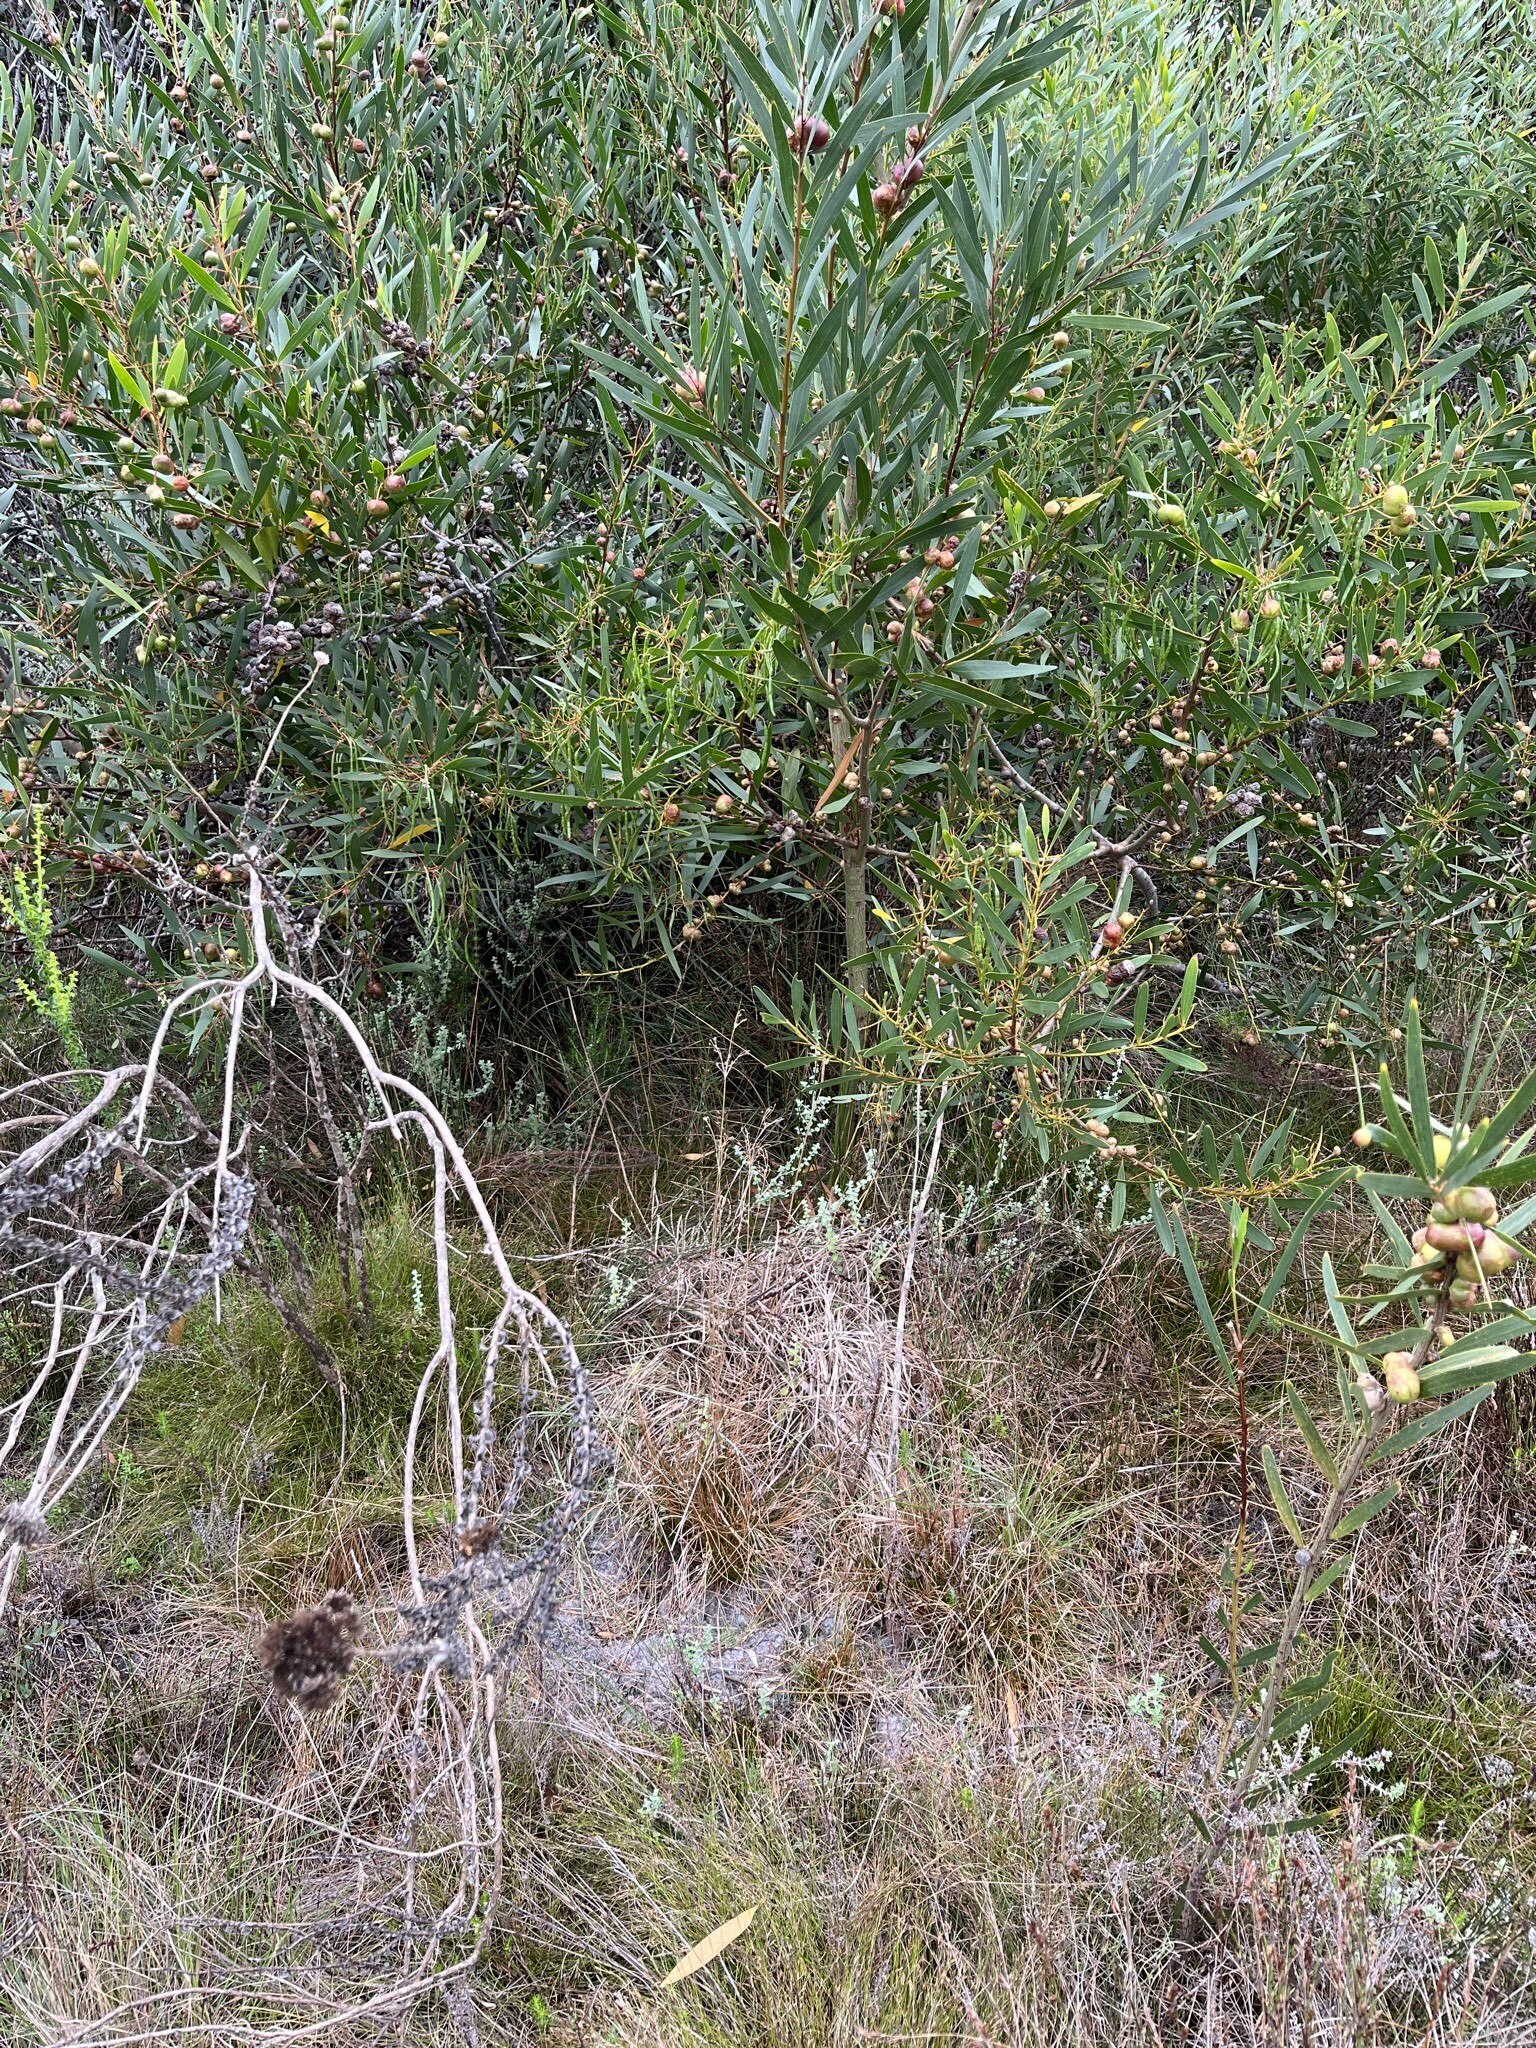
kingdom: Plantae
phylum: Tracheophyta
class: Magnoliopsida
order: Fabales
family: Fabaceae
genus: Acacia
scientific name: Acacia longifolia
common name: Sydney golden wattle
